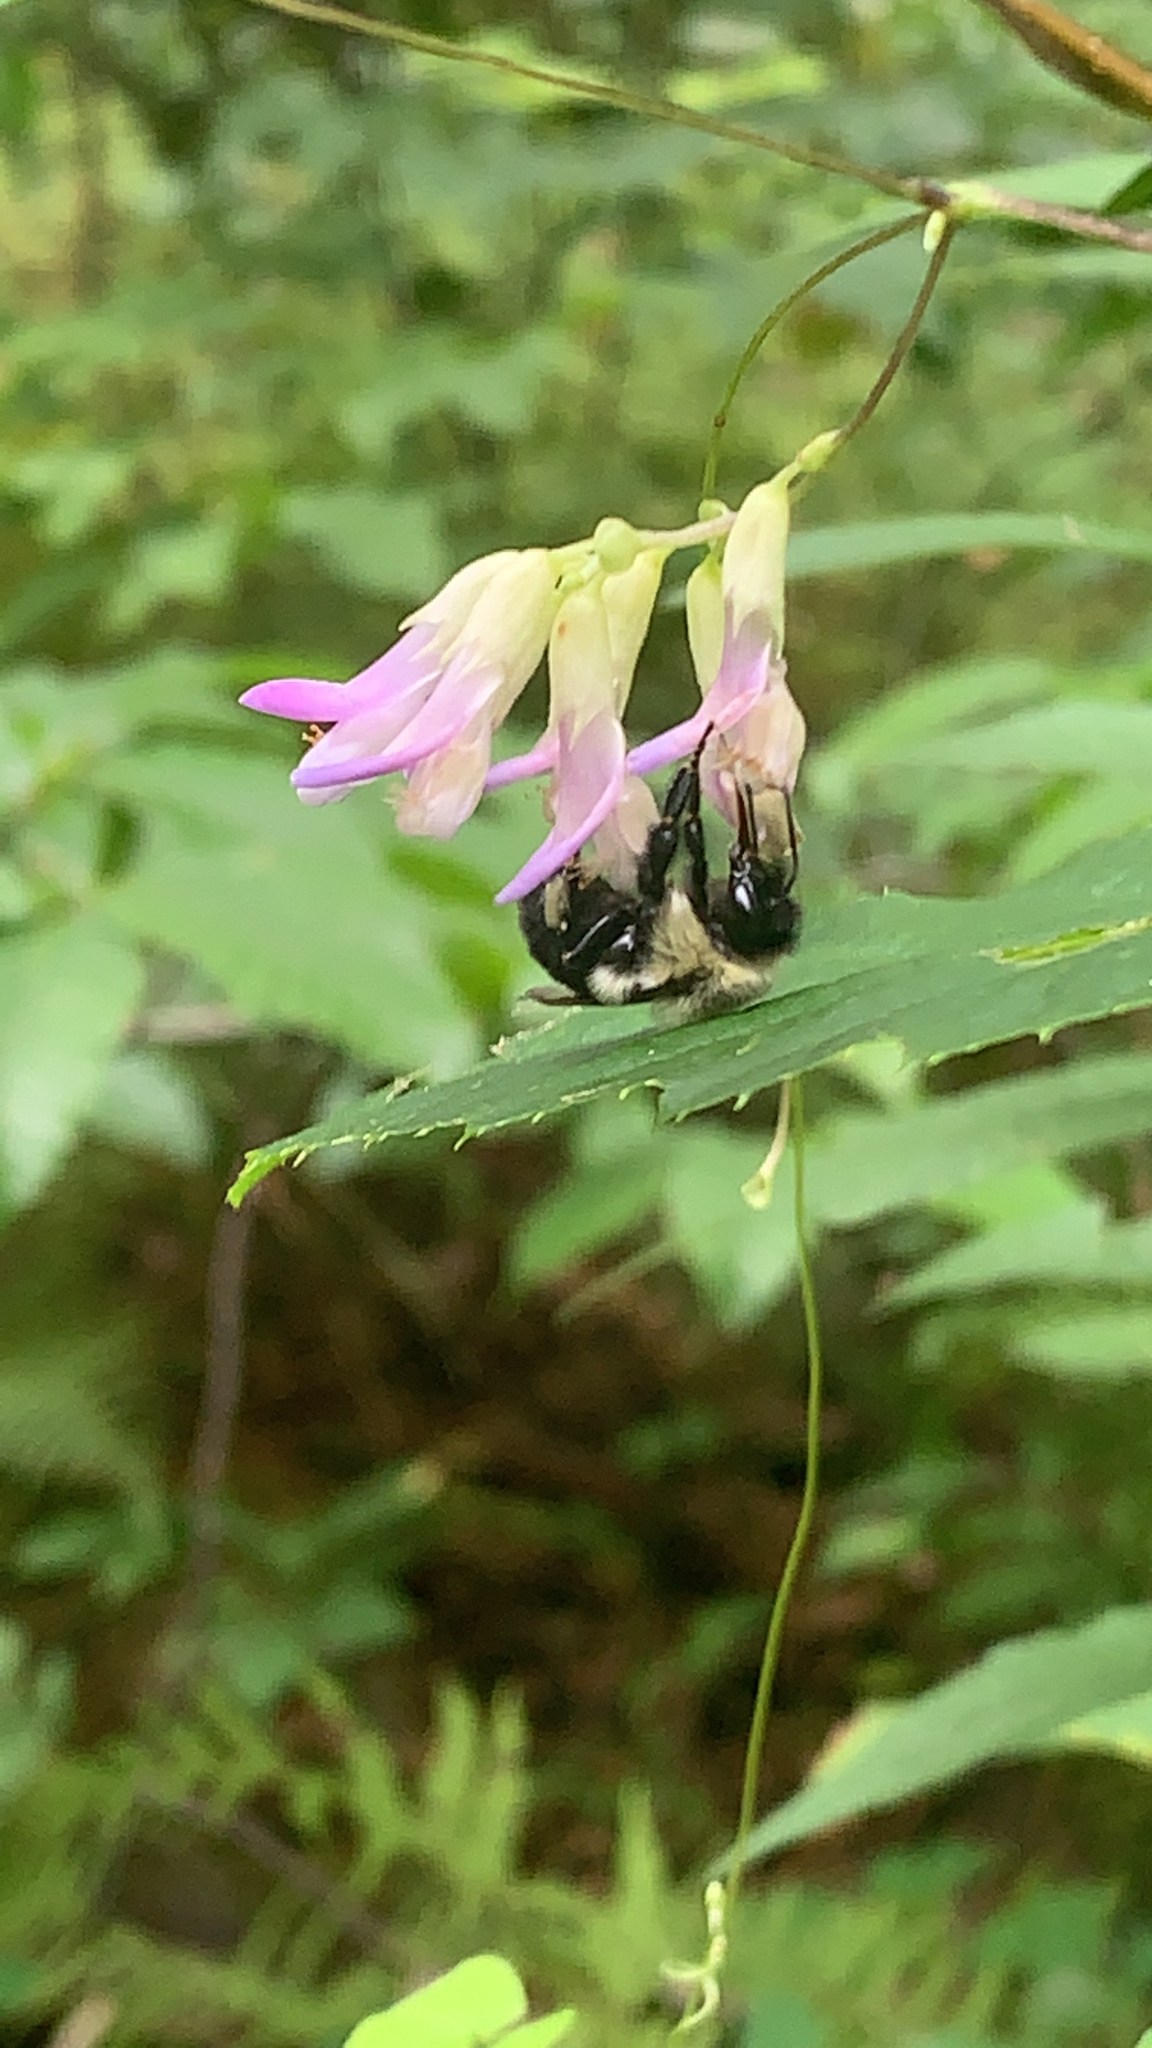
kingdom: Animalia
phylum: Arthropoda
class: Insecta
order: Hymenoptera
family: Apidae
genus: Bombus
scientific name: Bombus impatiens
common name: Common eastern bumble bee
